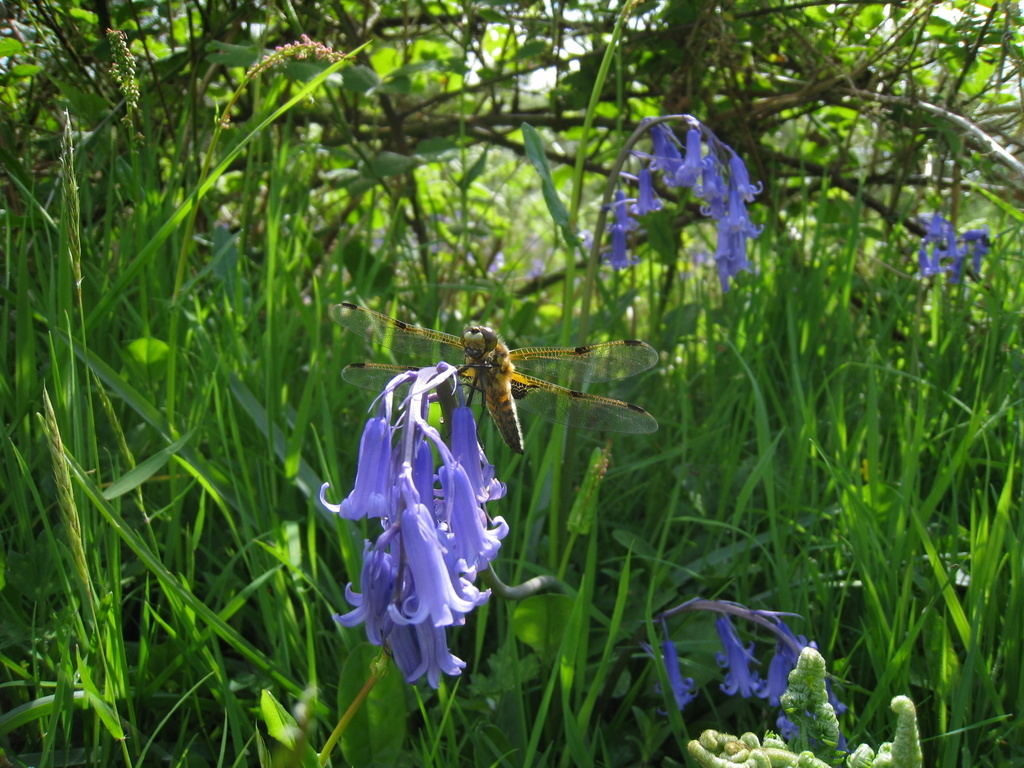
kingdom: Animalia
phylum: Arthropoda
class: Insecta
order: Odonata
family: Libellulidae
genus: Libellula
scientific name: Libellula quadrimaculata
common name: Four-spotted chaser
